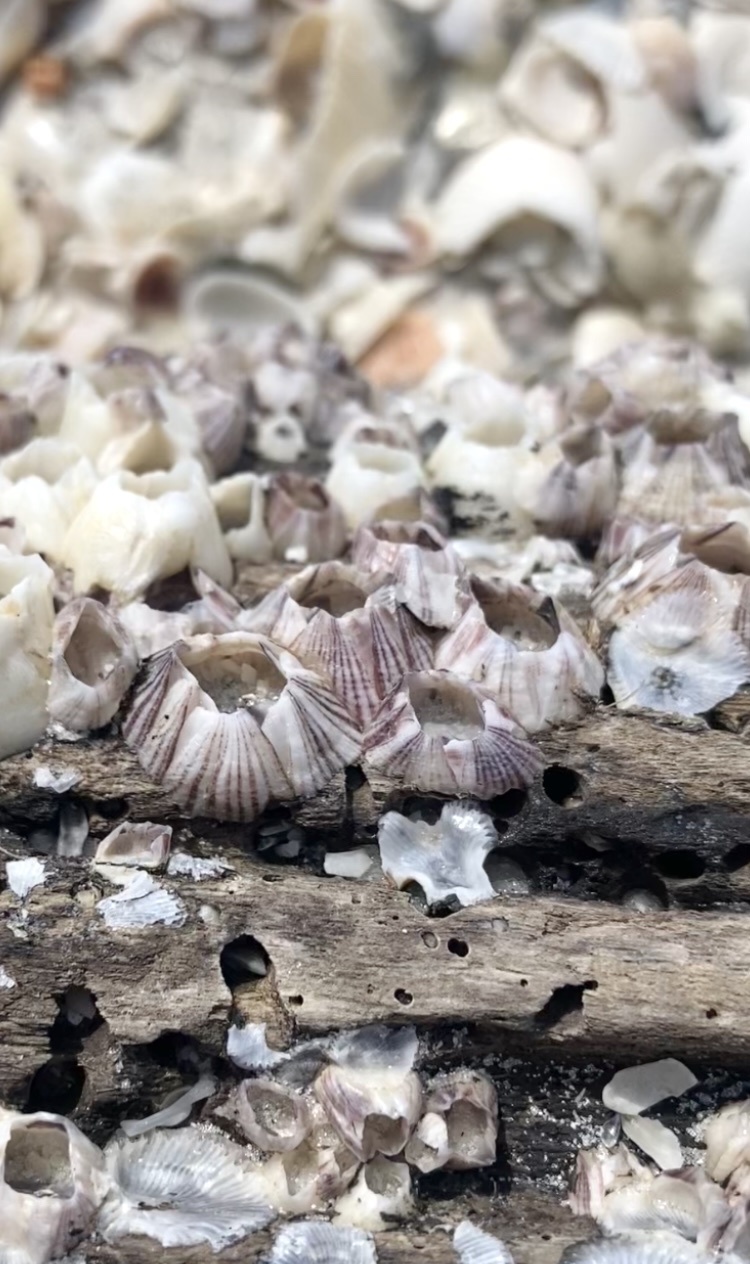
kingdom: Animalia
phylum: Arthropoda
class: Maxillopoda
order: Sessilia
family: Balanidae
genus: Amphibalanus
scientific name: Amphibalanus reticulatus
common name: Reticulated barnacle
